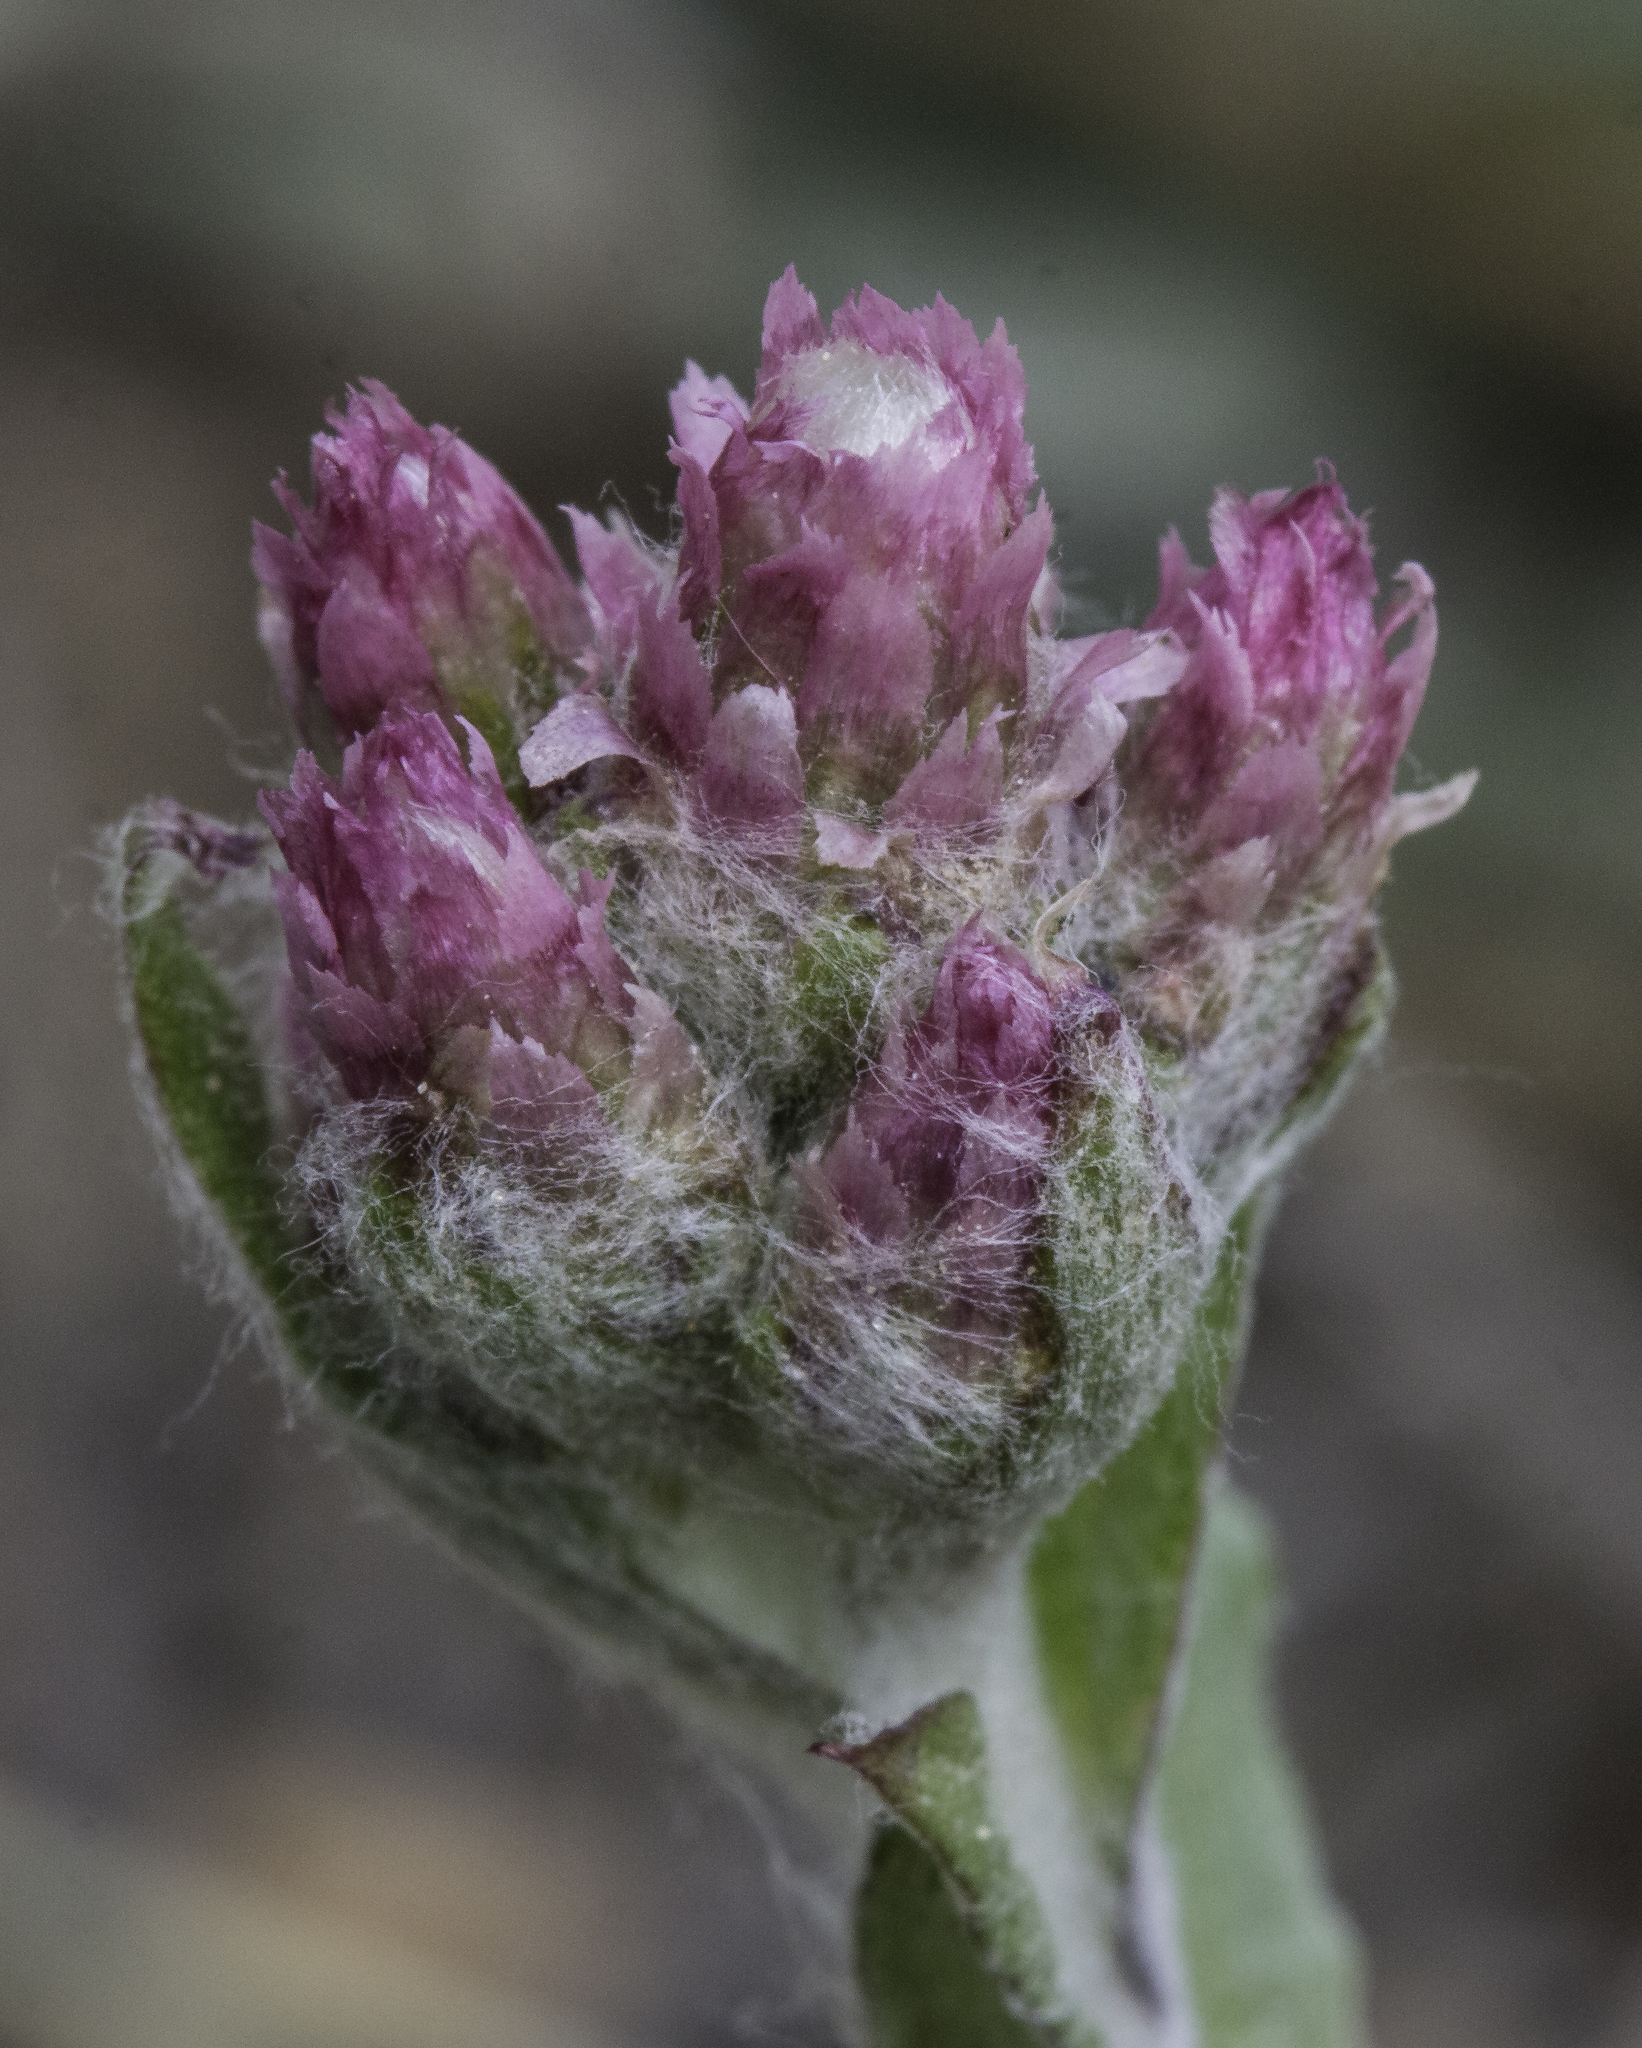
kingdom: Plantae
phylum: Tracheophyta
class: Magnoliopsida
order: Asterales
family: Asteraceae
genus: Antennaria
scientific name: Antennaria rosea
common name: Rosy pussytoes
